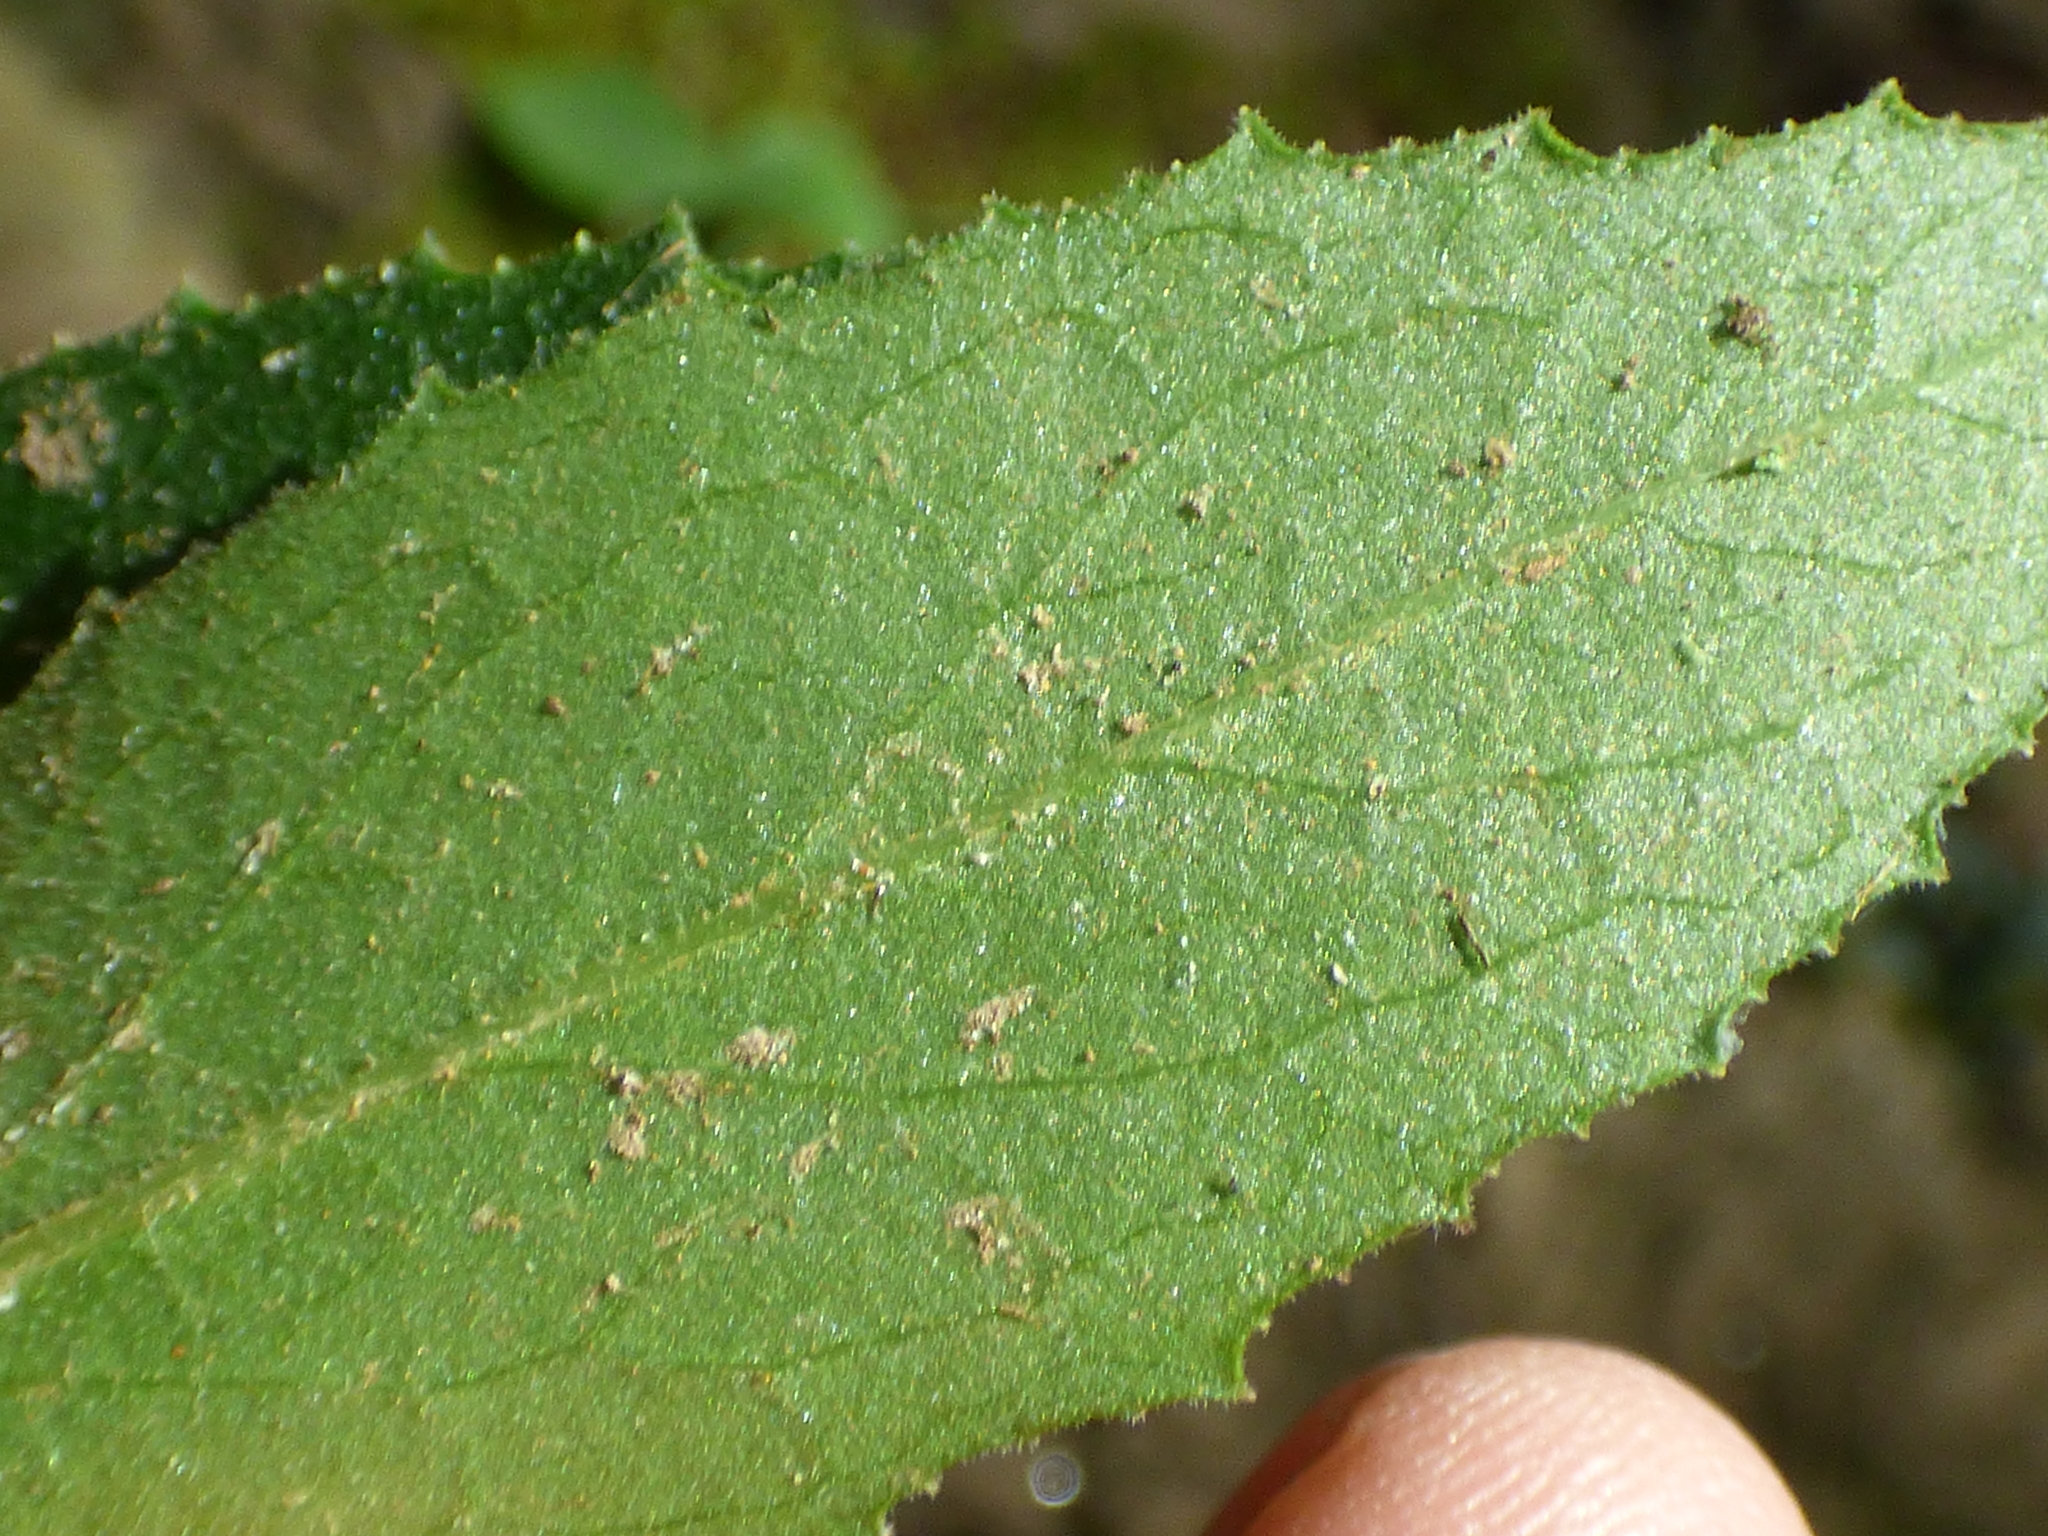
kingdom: Plantae
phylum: Tracheophyta
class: Magnoliopsida
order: Asterales
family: Campanulaceae
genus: Lobelia
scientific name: Lobelia puberula
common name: Purple dewdrop
